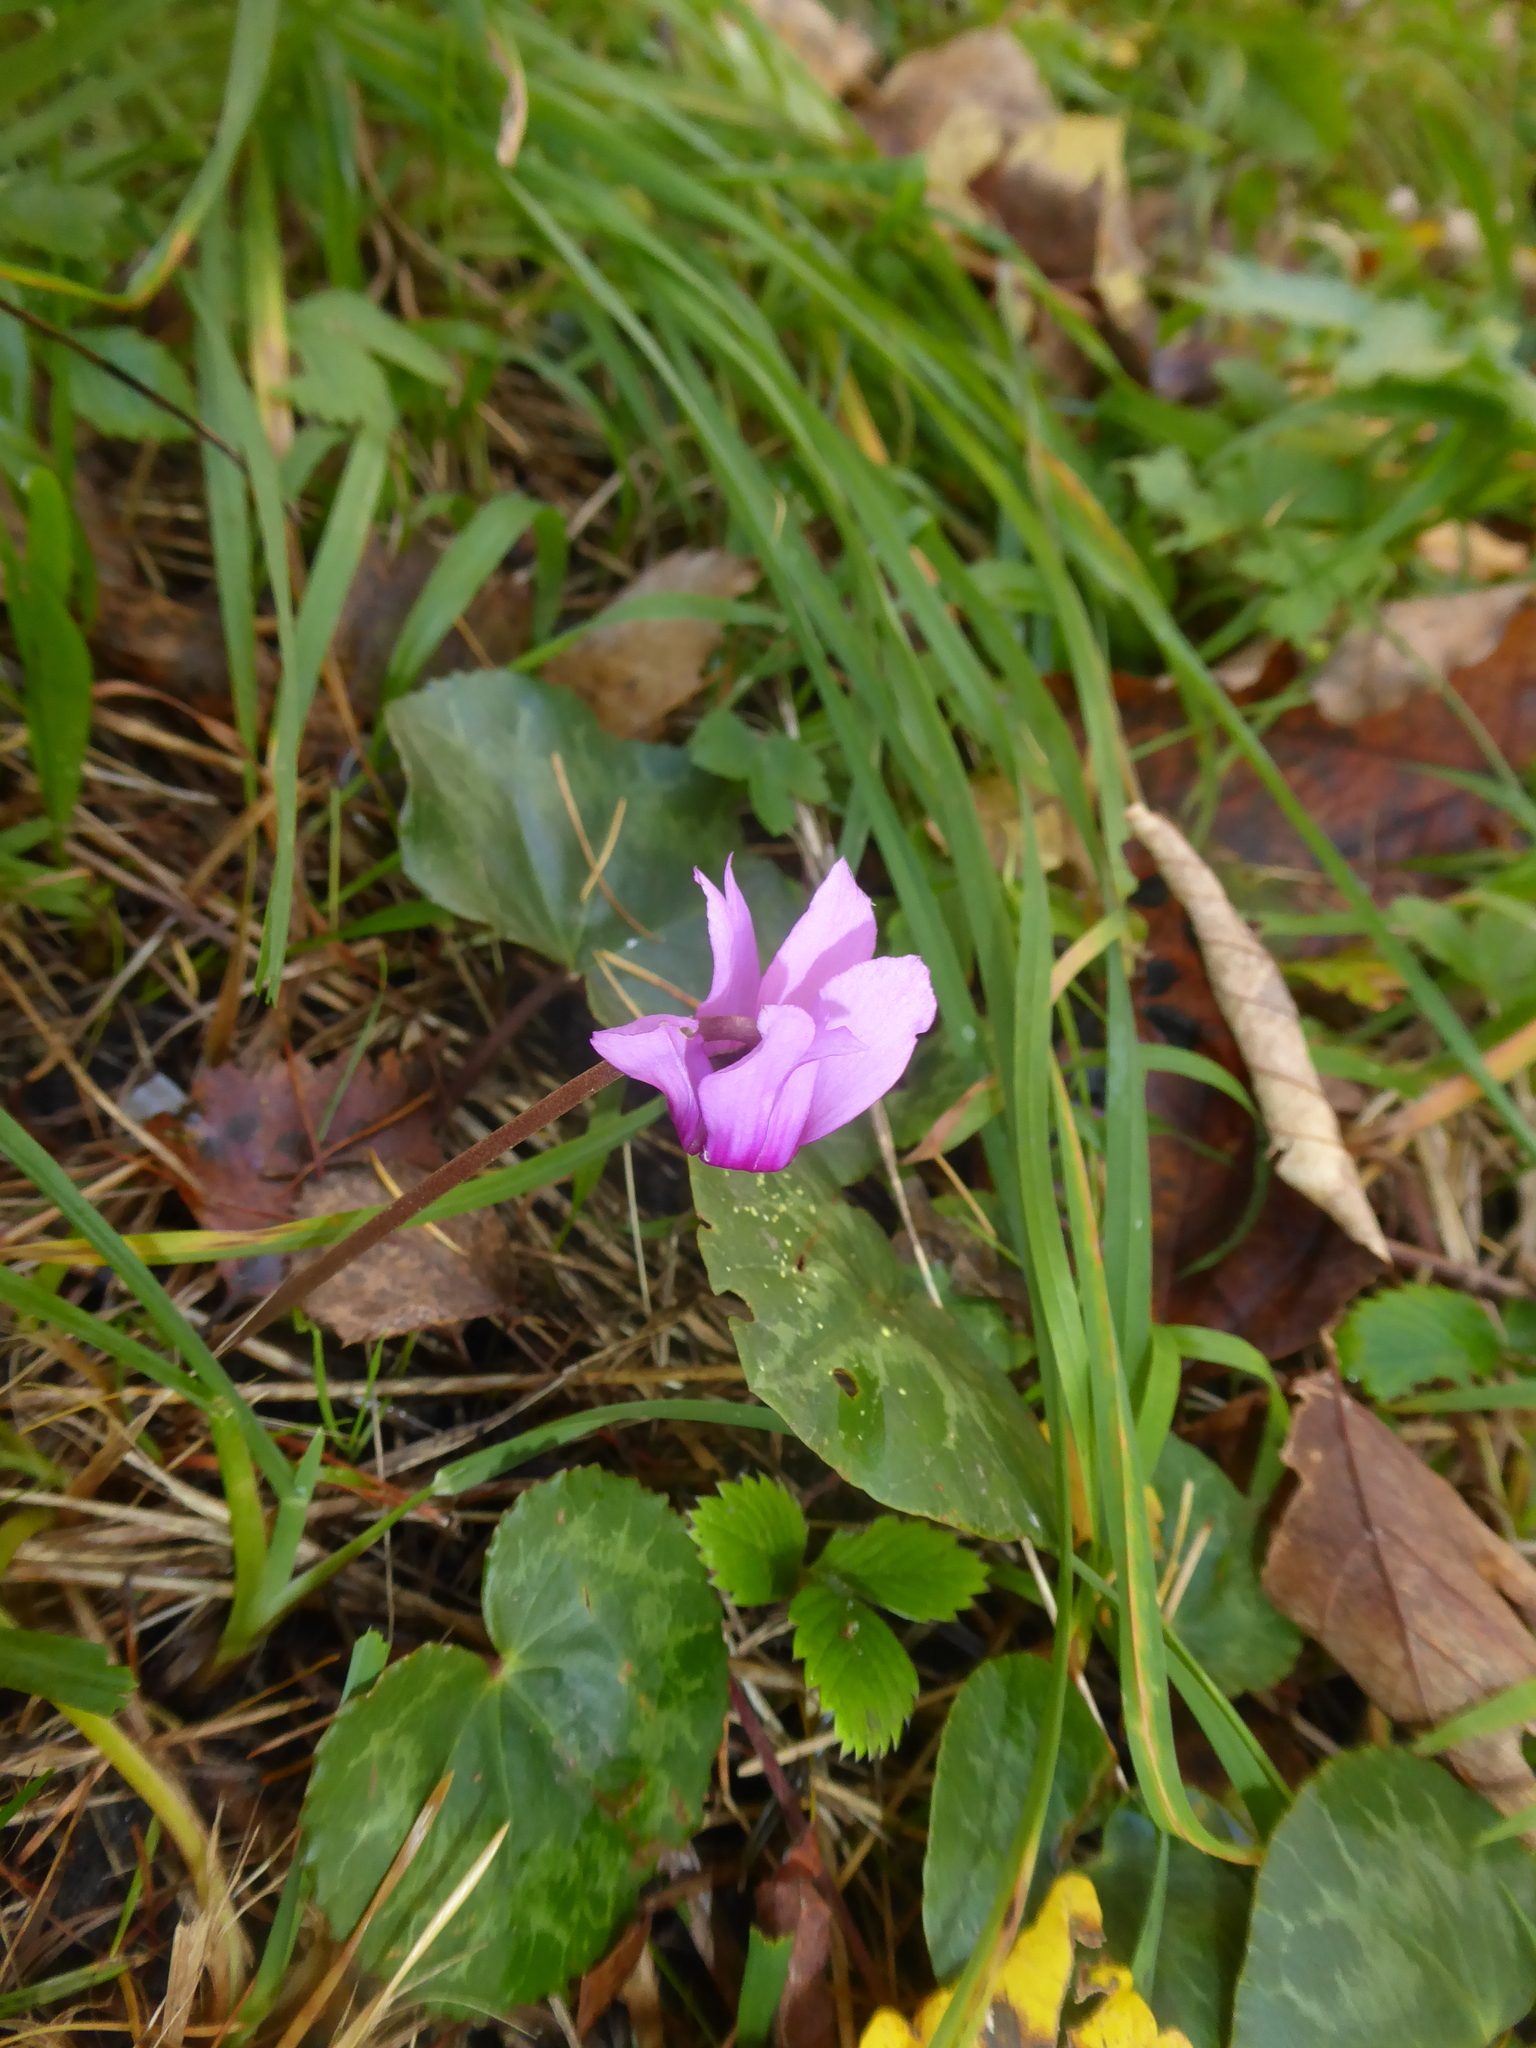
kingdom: Plantae
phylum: Tracheophyta
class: Magnoliopsida
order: Ericales
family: Primulaceae
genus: Cyclamen
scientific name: Cyclamen purpurascens
